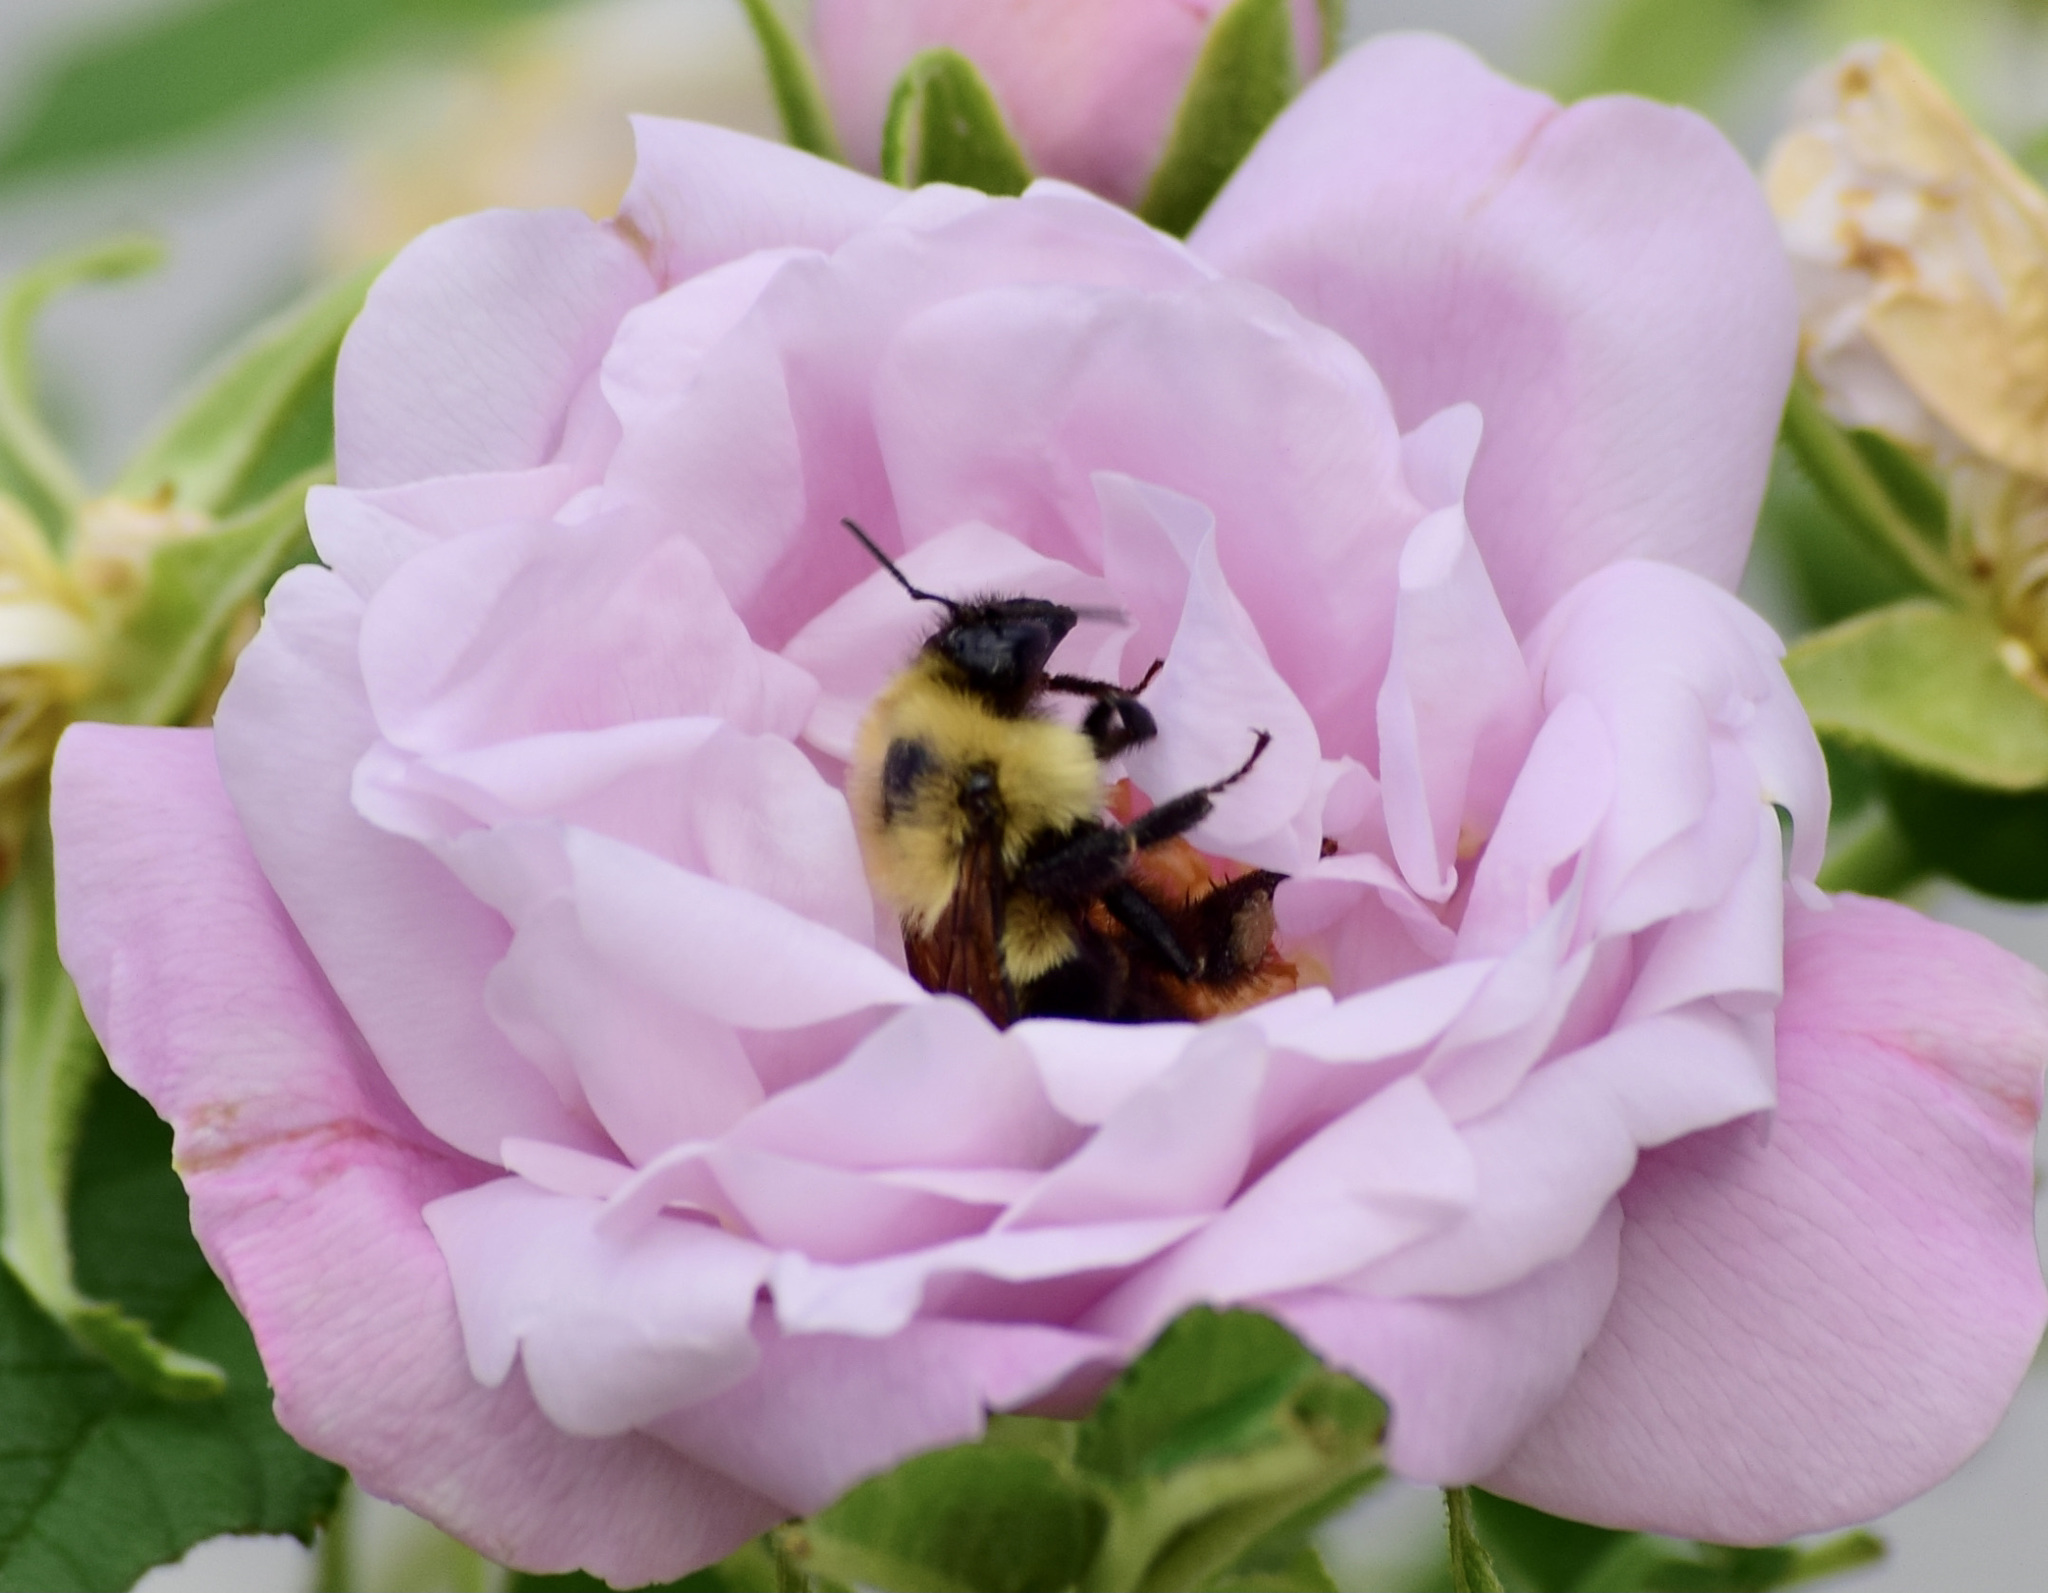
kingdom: Animalia
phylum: Arthropoda
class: Insecta
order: Hymenoptera
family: Apidae
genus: Bombus
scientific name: Bombus ternarius
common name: Tri-colored bumble bee
